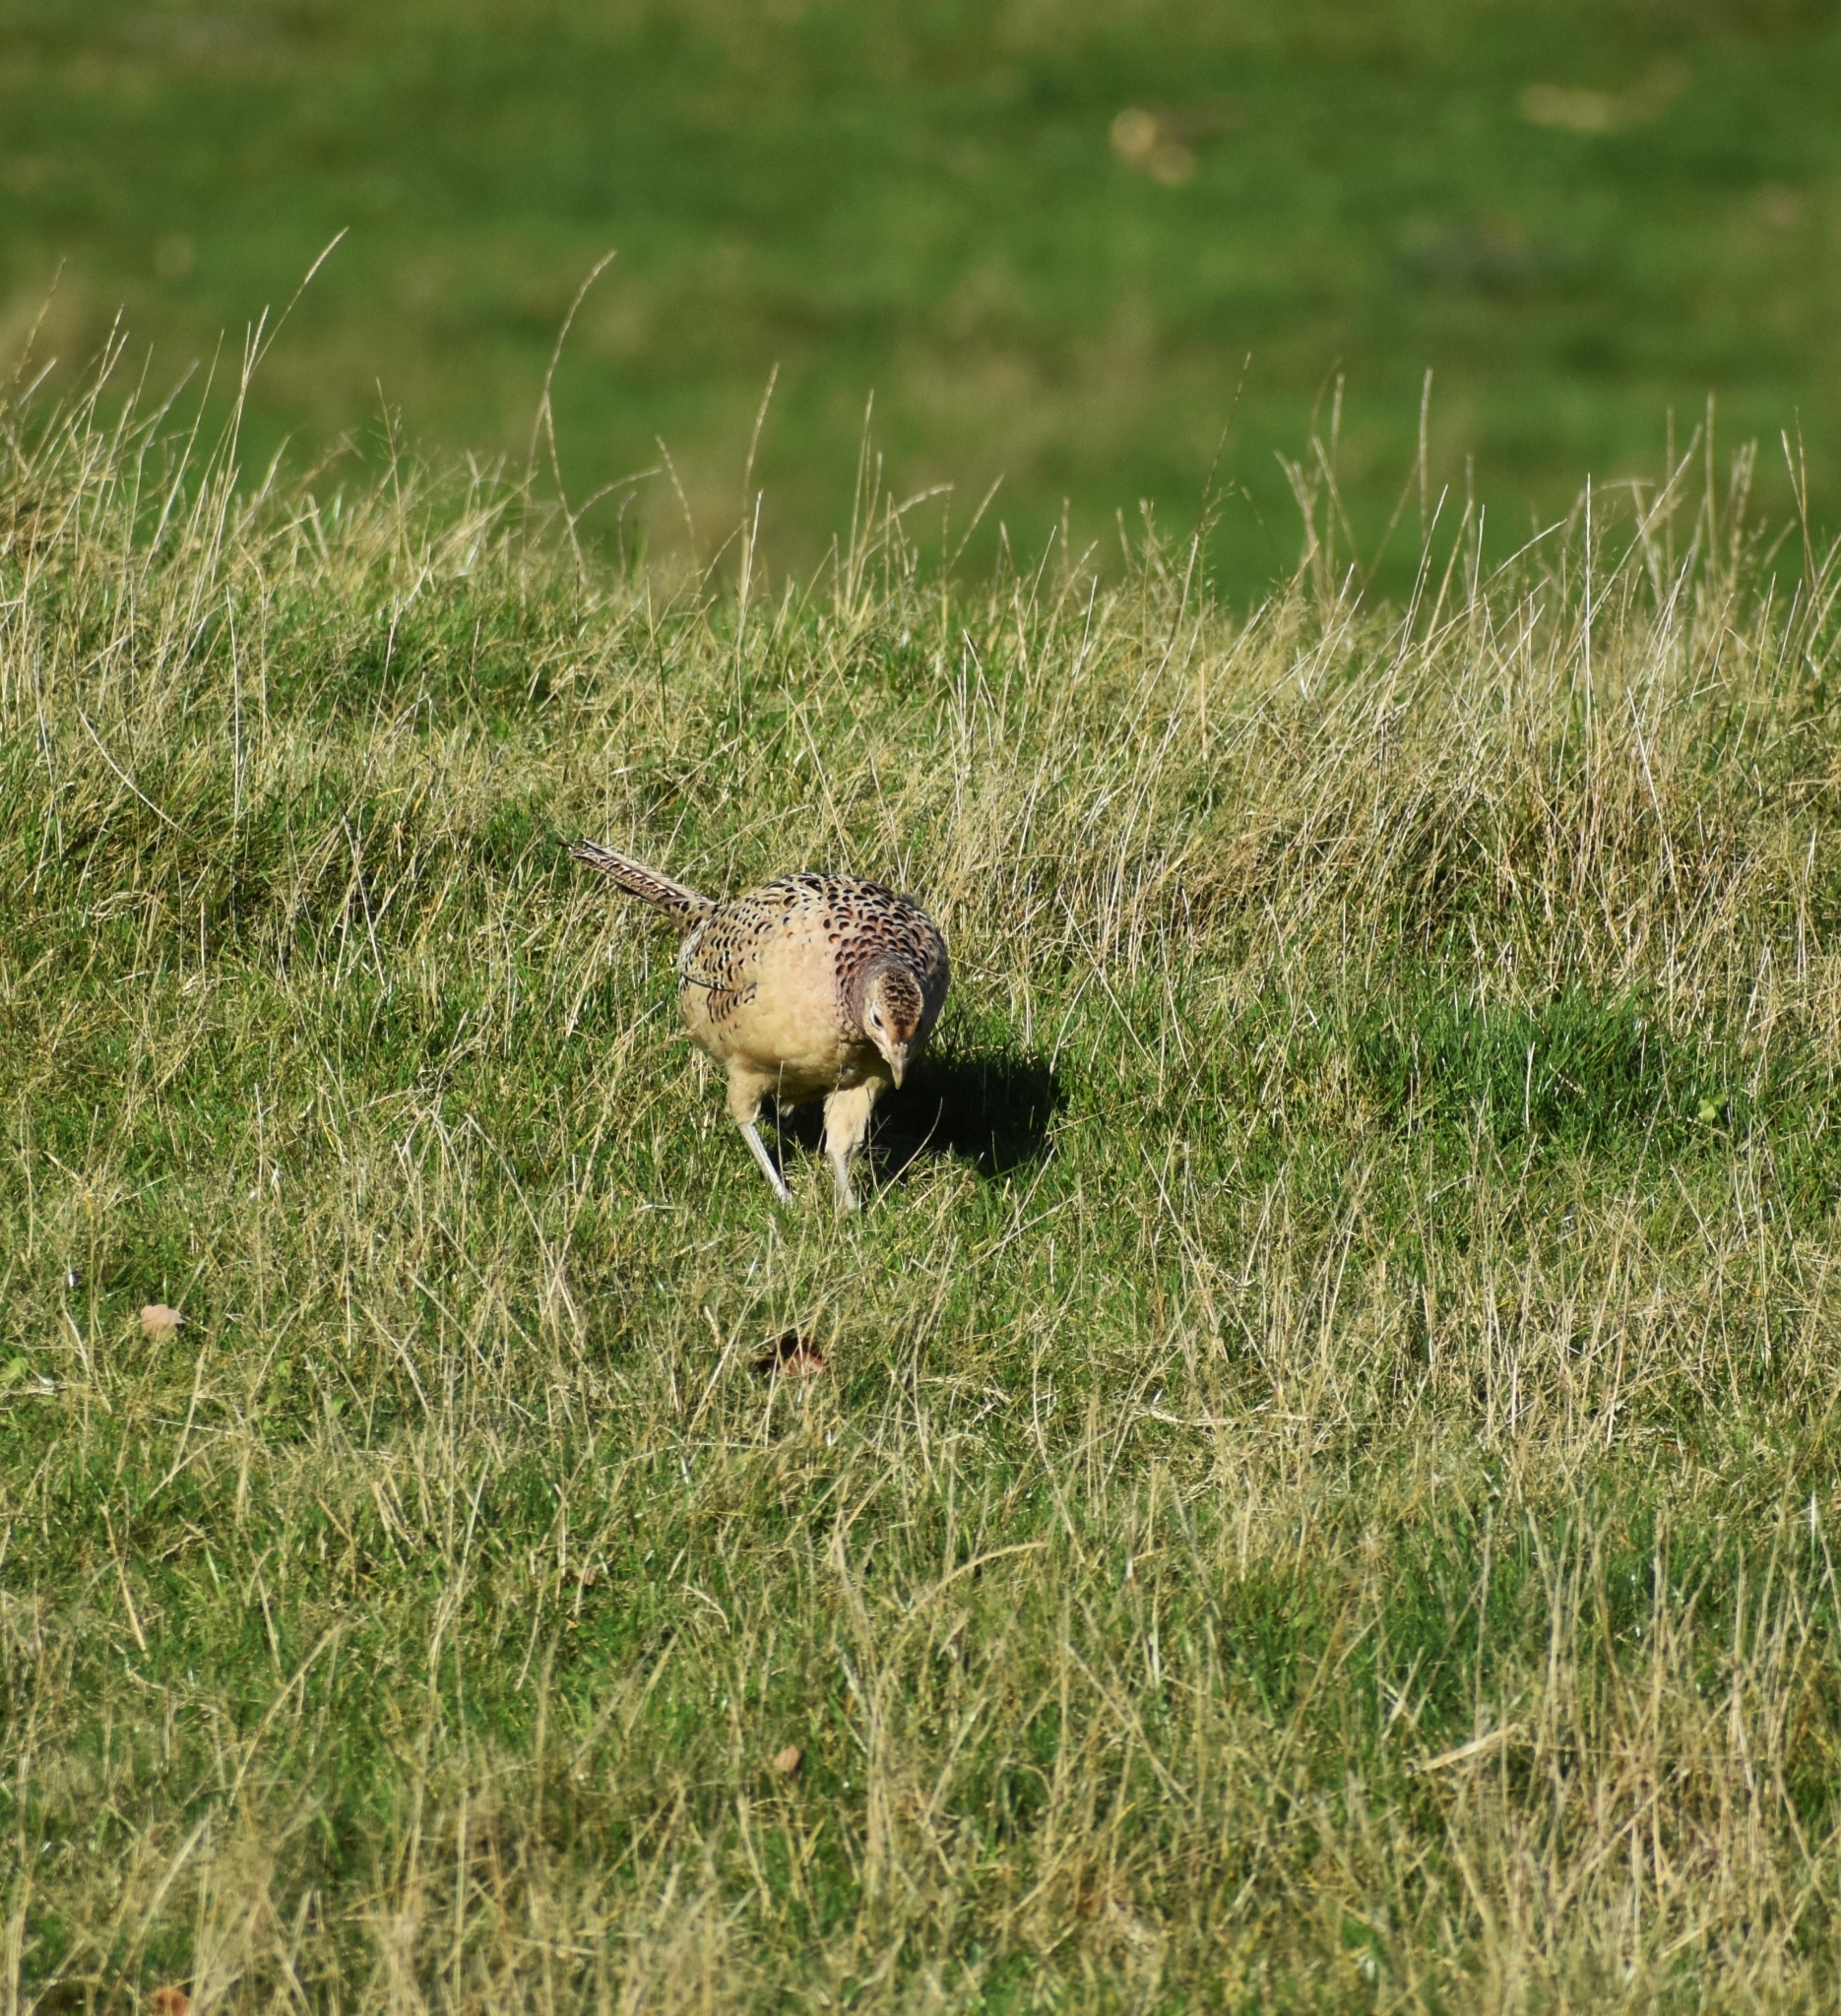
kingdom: Animalia
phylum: Chordata
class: Aves
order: Galliformes
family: Phasianidae
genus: Phasianus
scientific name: Phasianus colchicus
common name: Common pheasant
